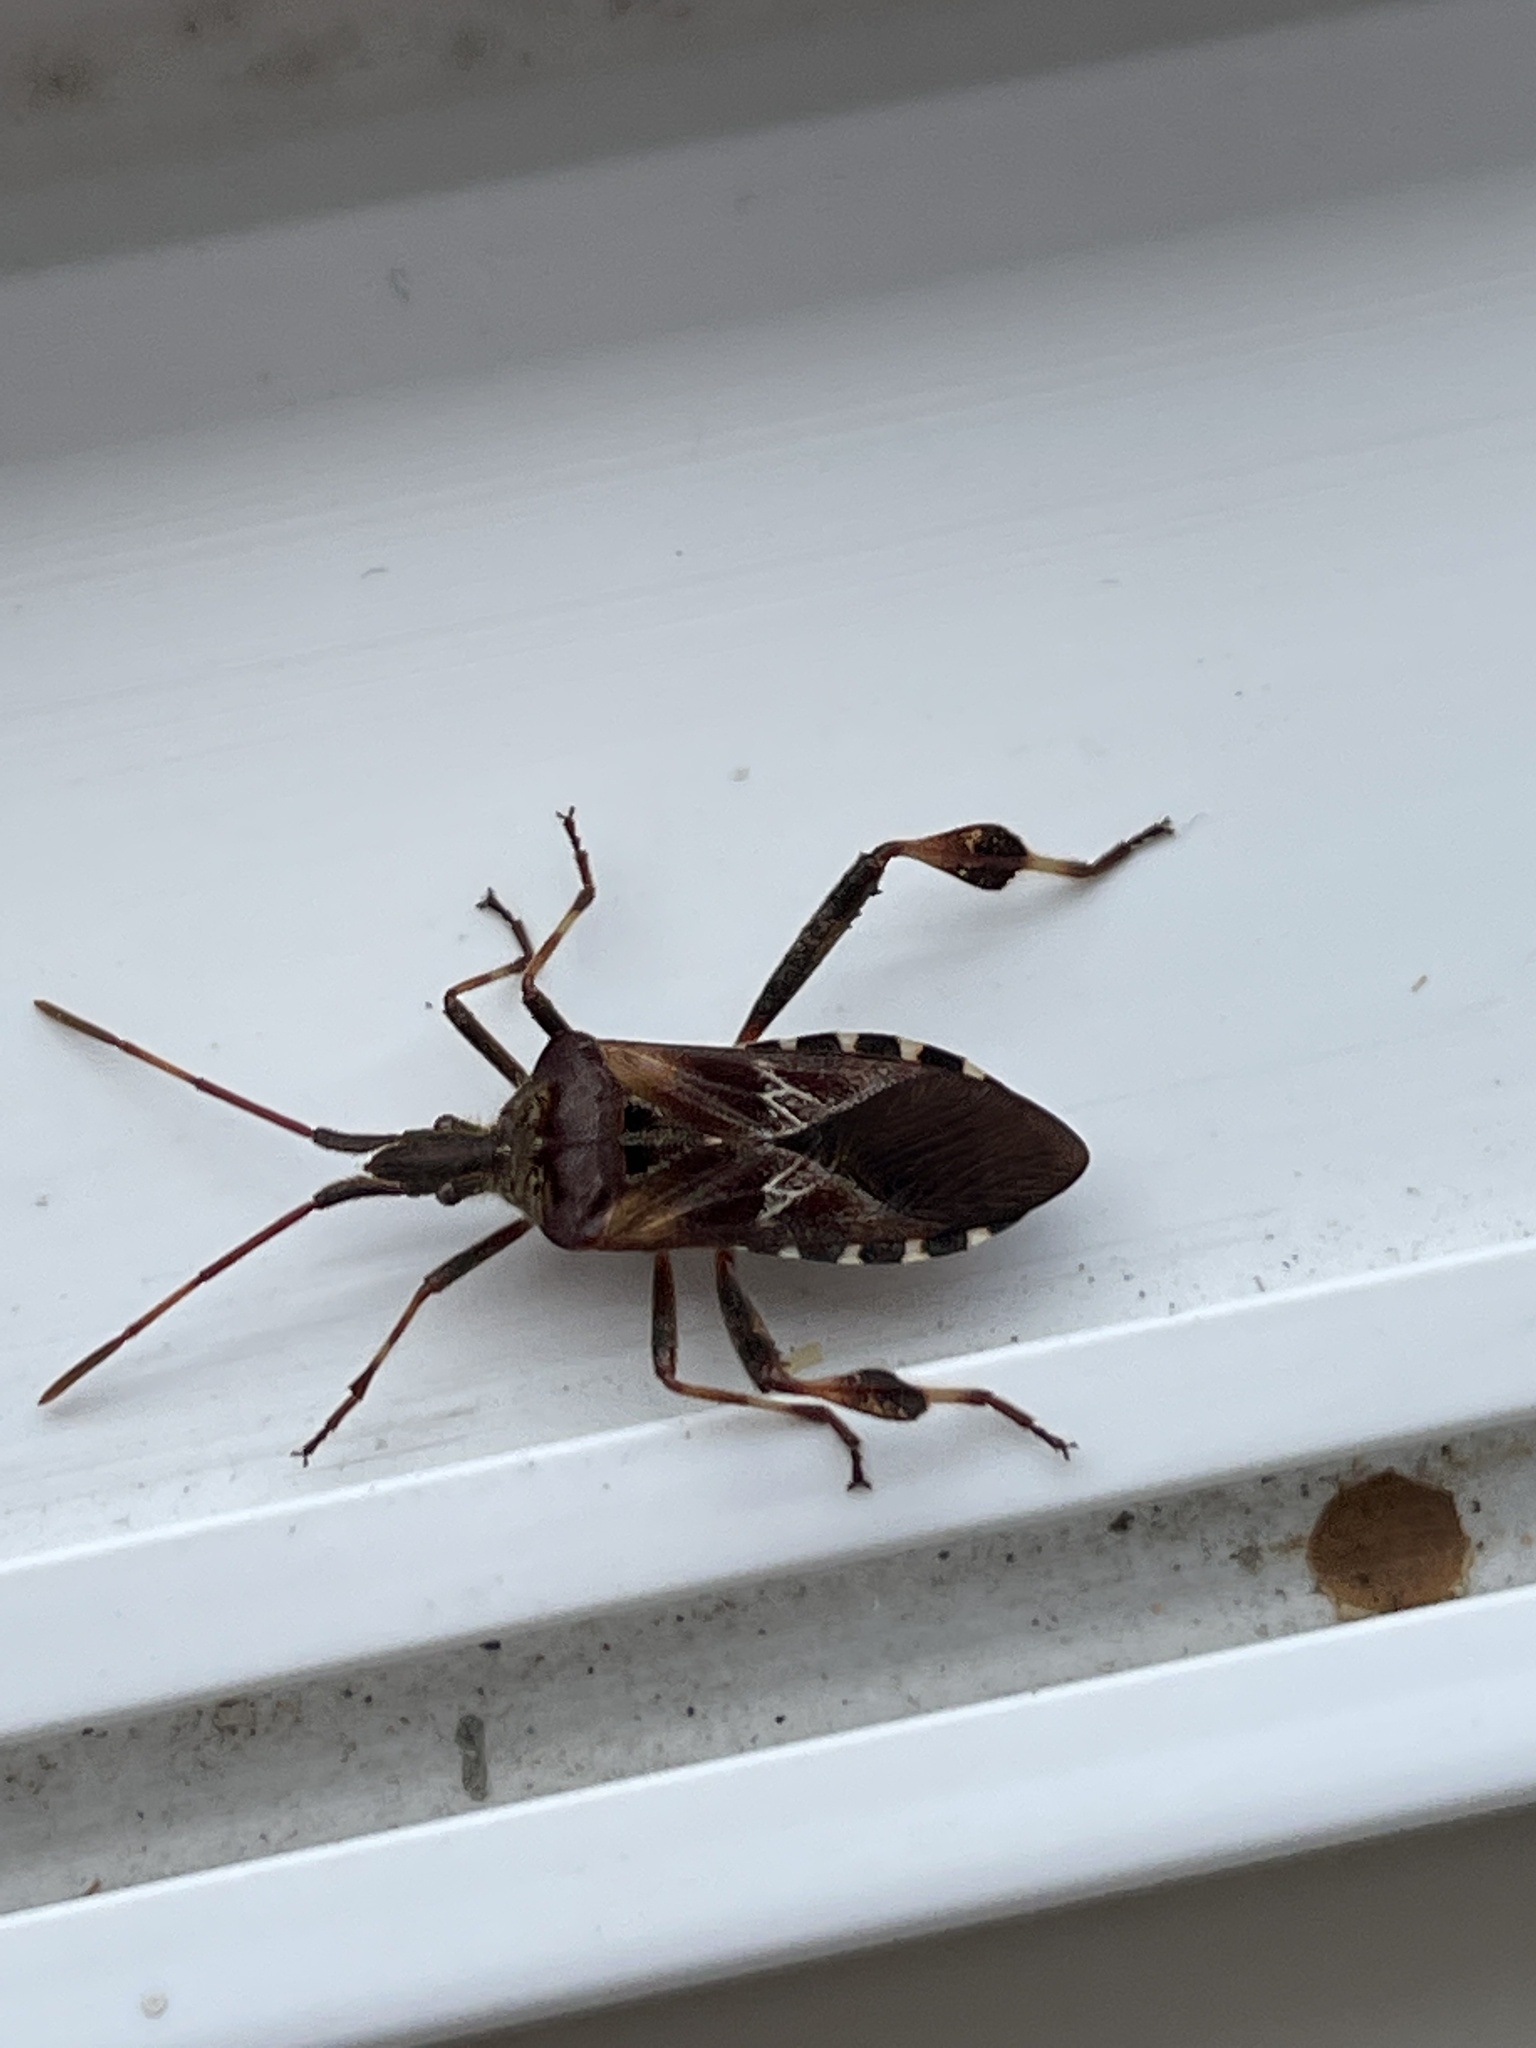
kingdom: Animalia
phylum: Arthropoda
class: Insecta
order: Hemiptera
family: Coreidae
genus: Leptoglossus
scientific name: Leptoglossus occidentalis
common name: Western conifer-seed bug
